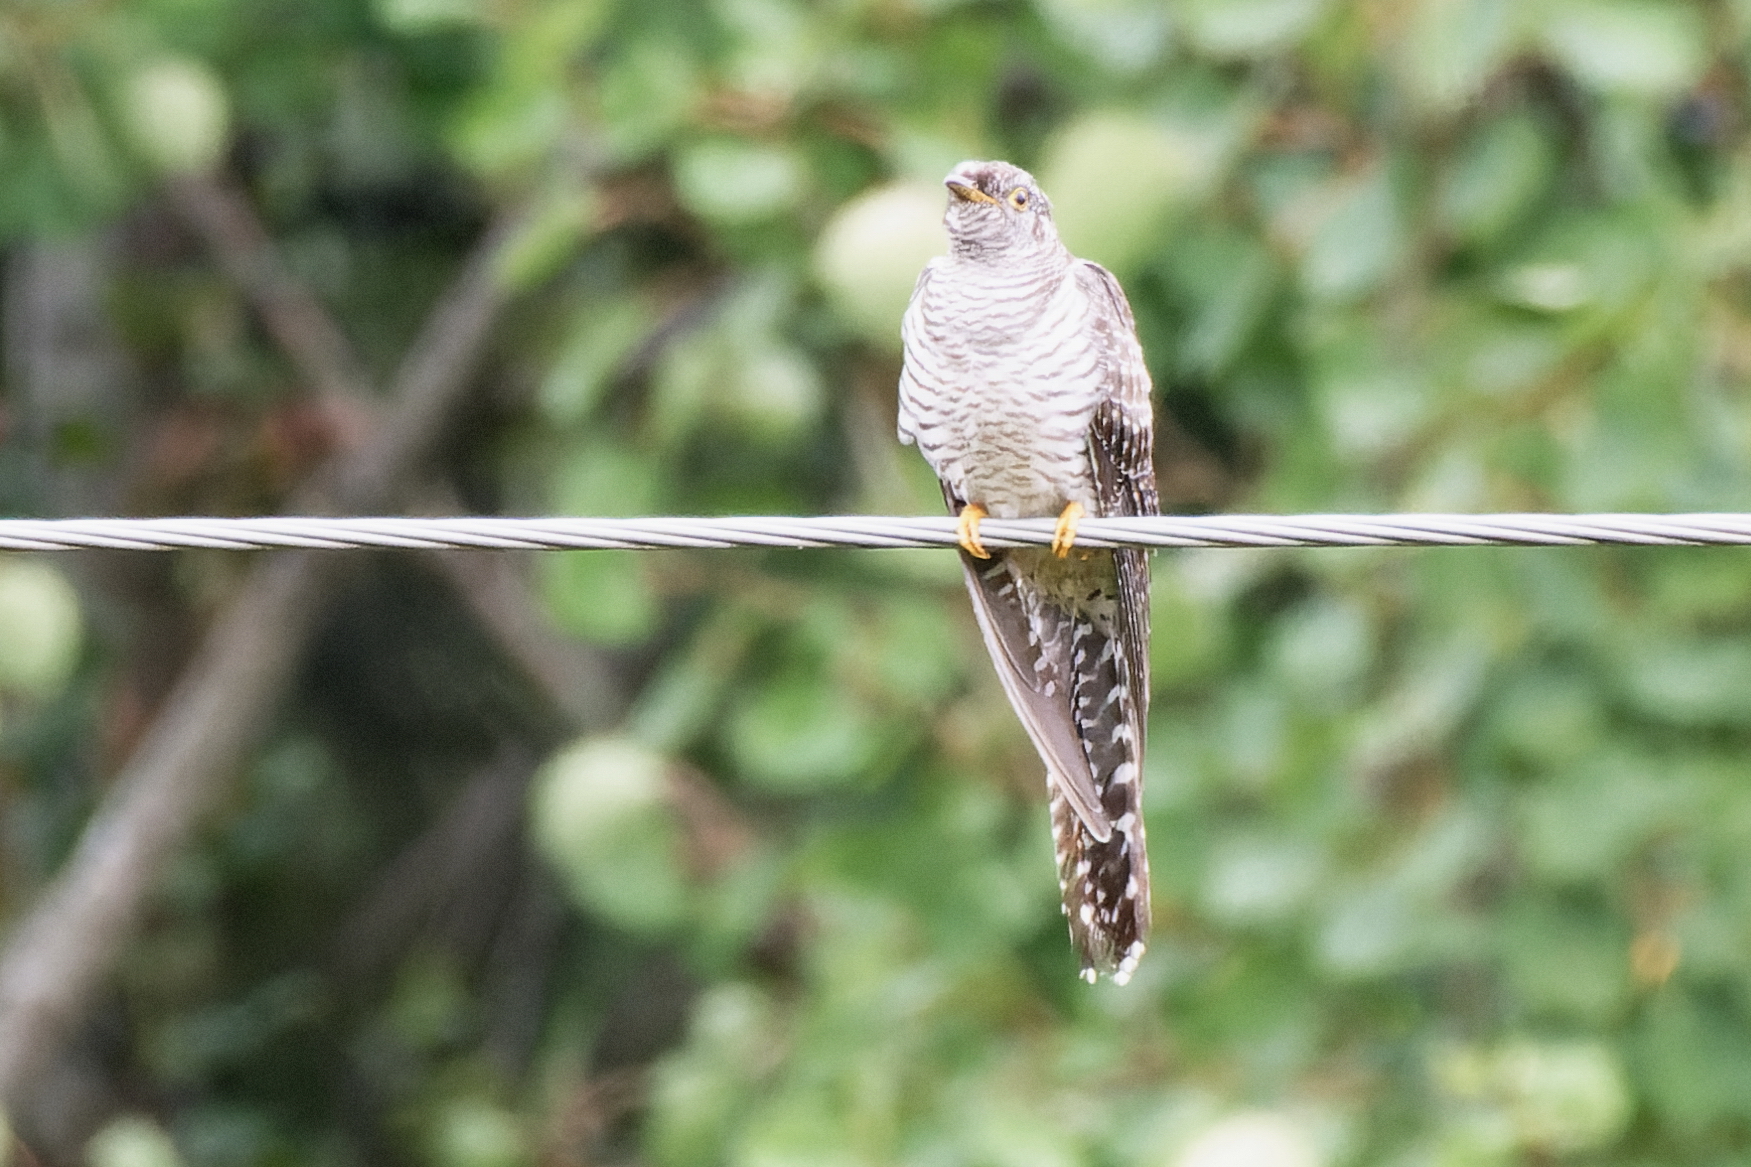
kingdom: Animalia
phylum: Chordata
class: Aves
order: Cuculiformes
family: Cuculidae
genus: Cuculus
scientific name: Cuculus canorus
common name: Common cuckoo
